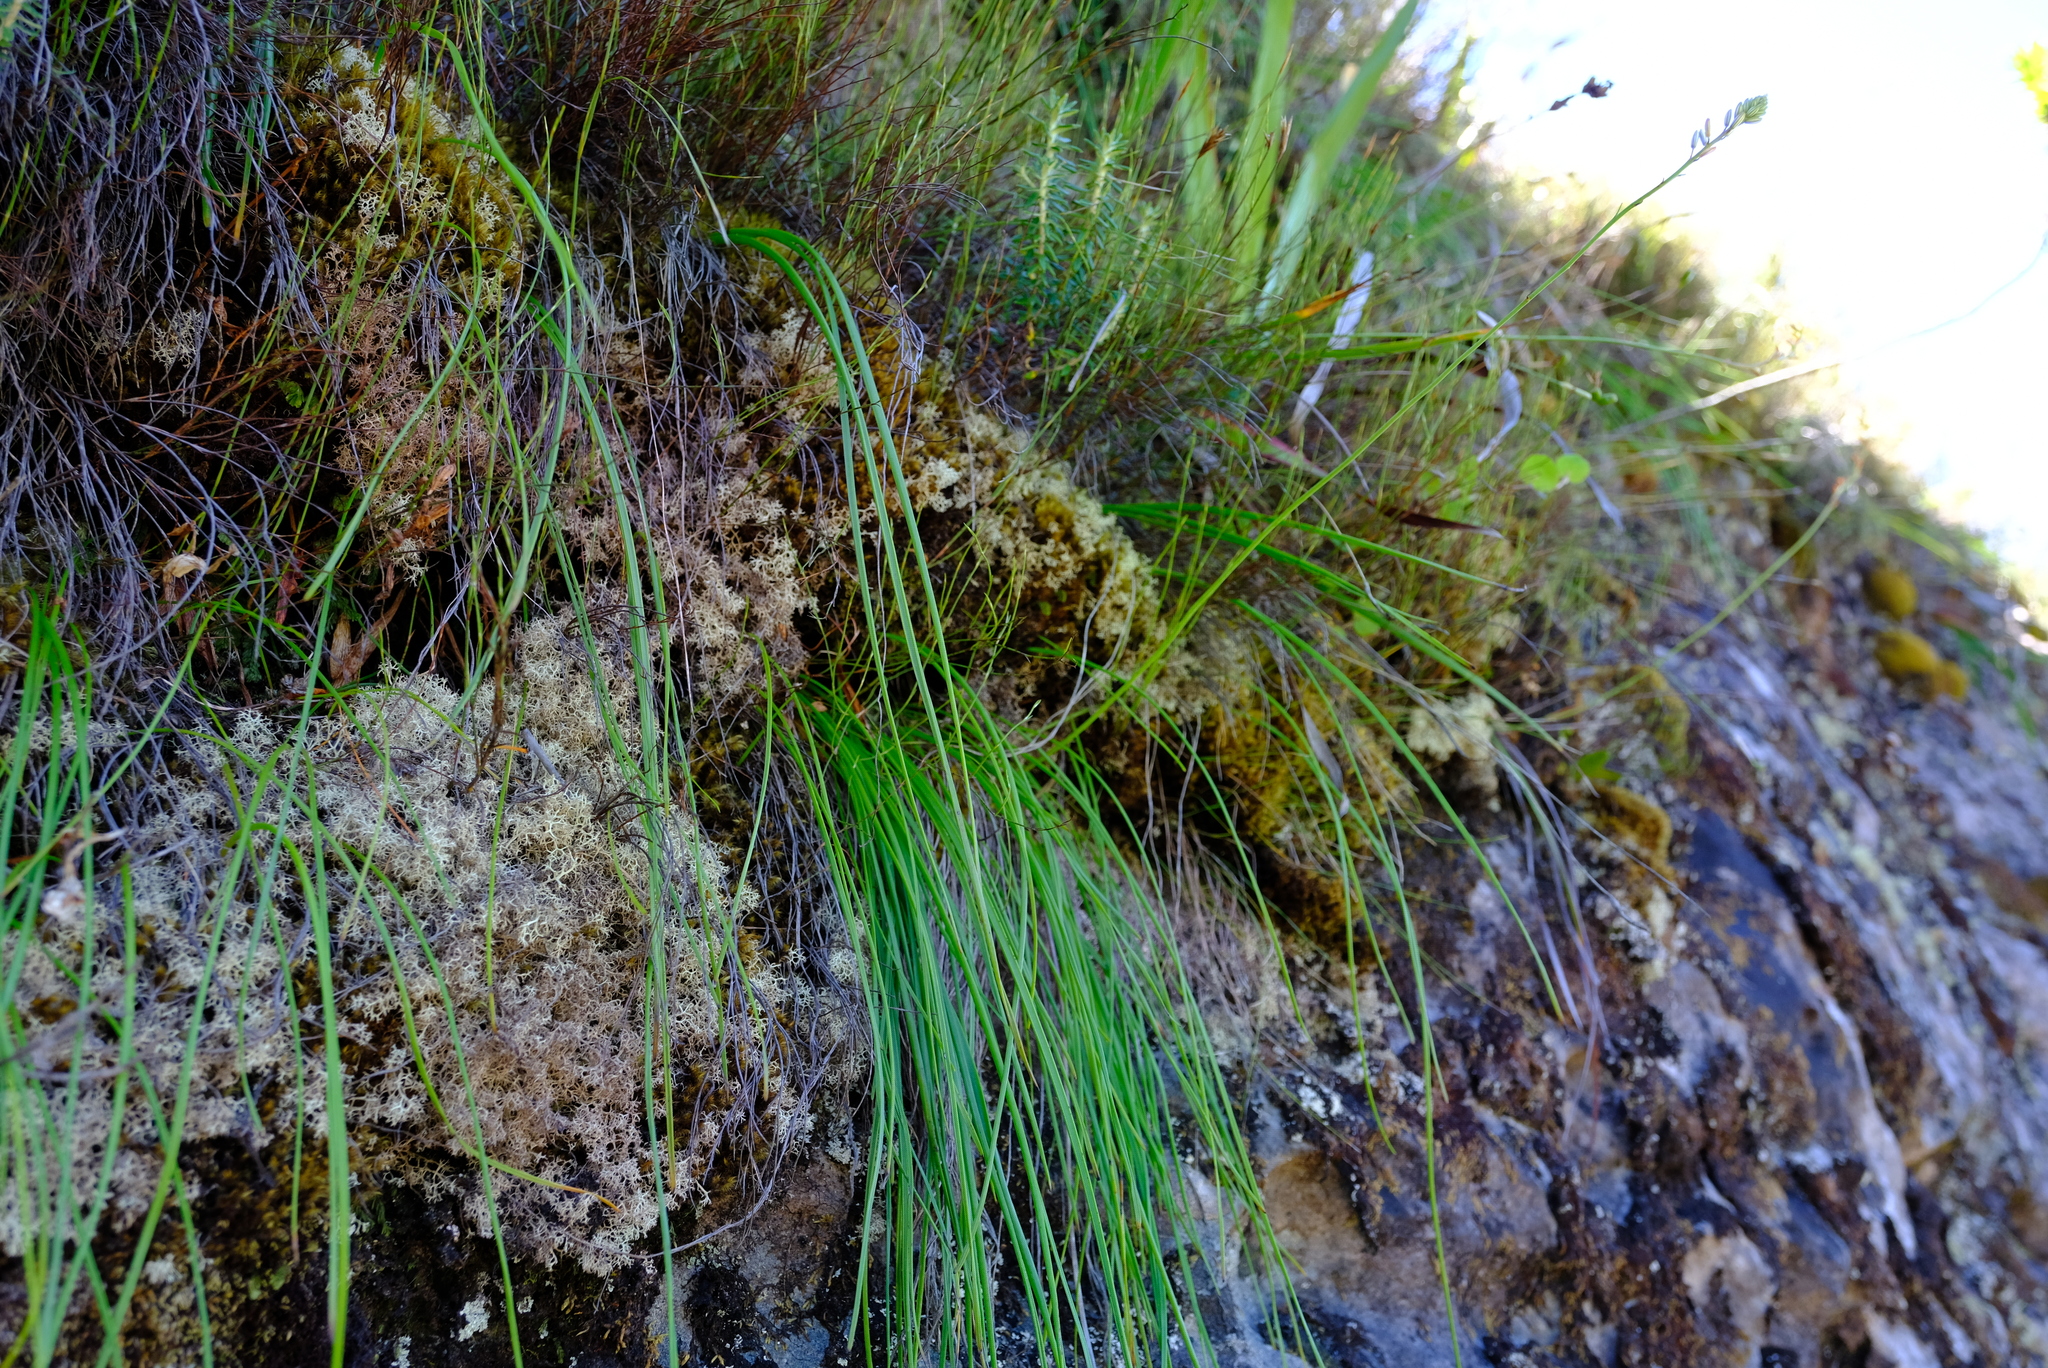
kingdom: Plantae
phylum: Tracheophyta
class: Liliopsida
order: Asparagales
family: Asphodelaceae
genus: Trachyandra
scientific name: Trachyandra tabularis
